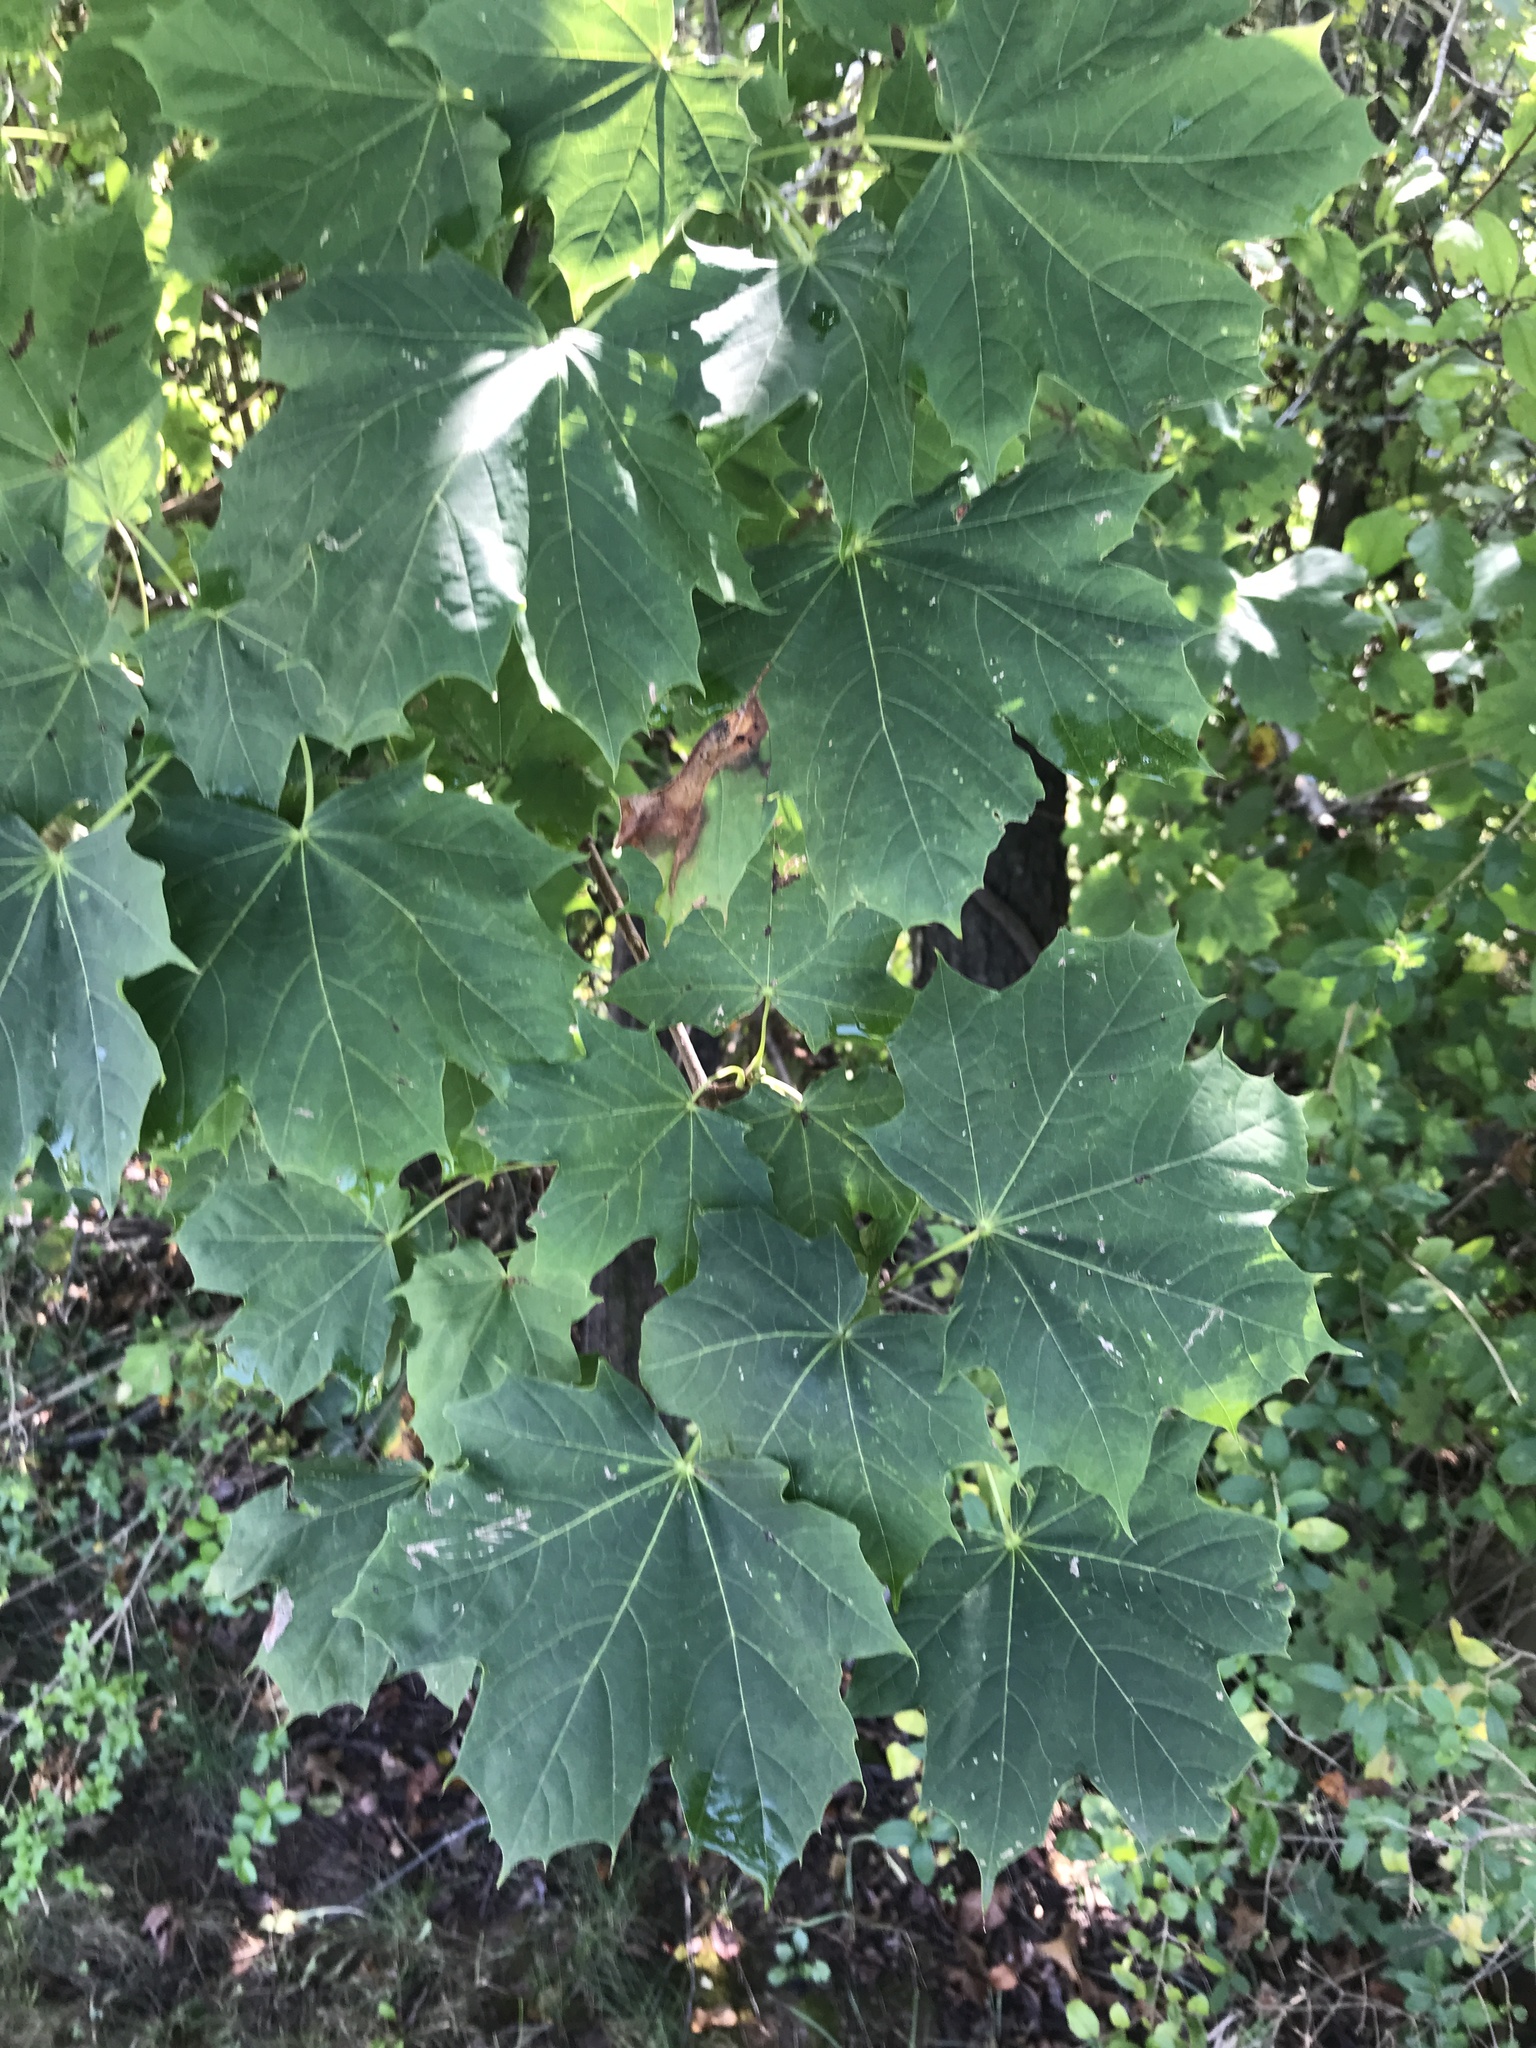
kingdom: Plantae
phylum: Tracheophyta
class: Magnoliopsida
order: Sapindales
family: Sapindaceae
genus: Acer
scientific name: Acer platanoides
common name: Norway maple
